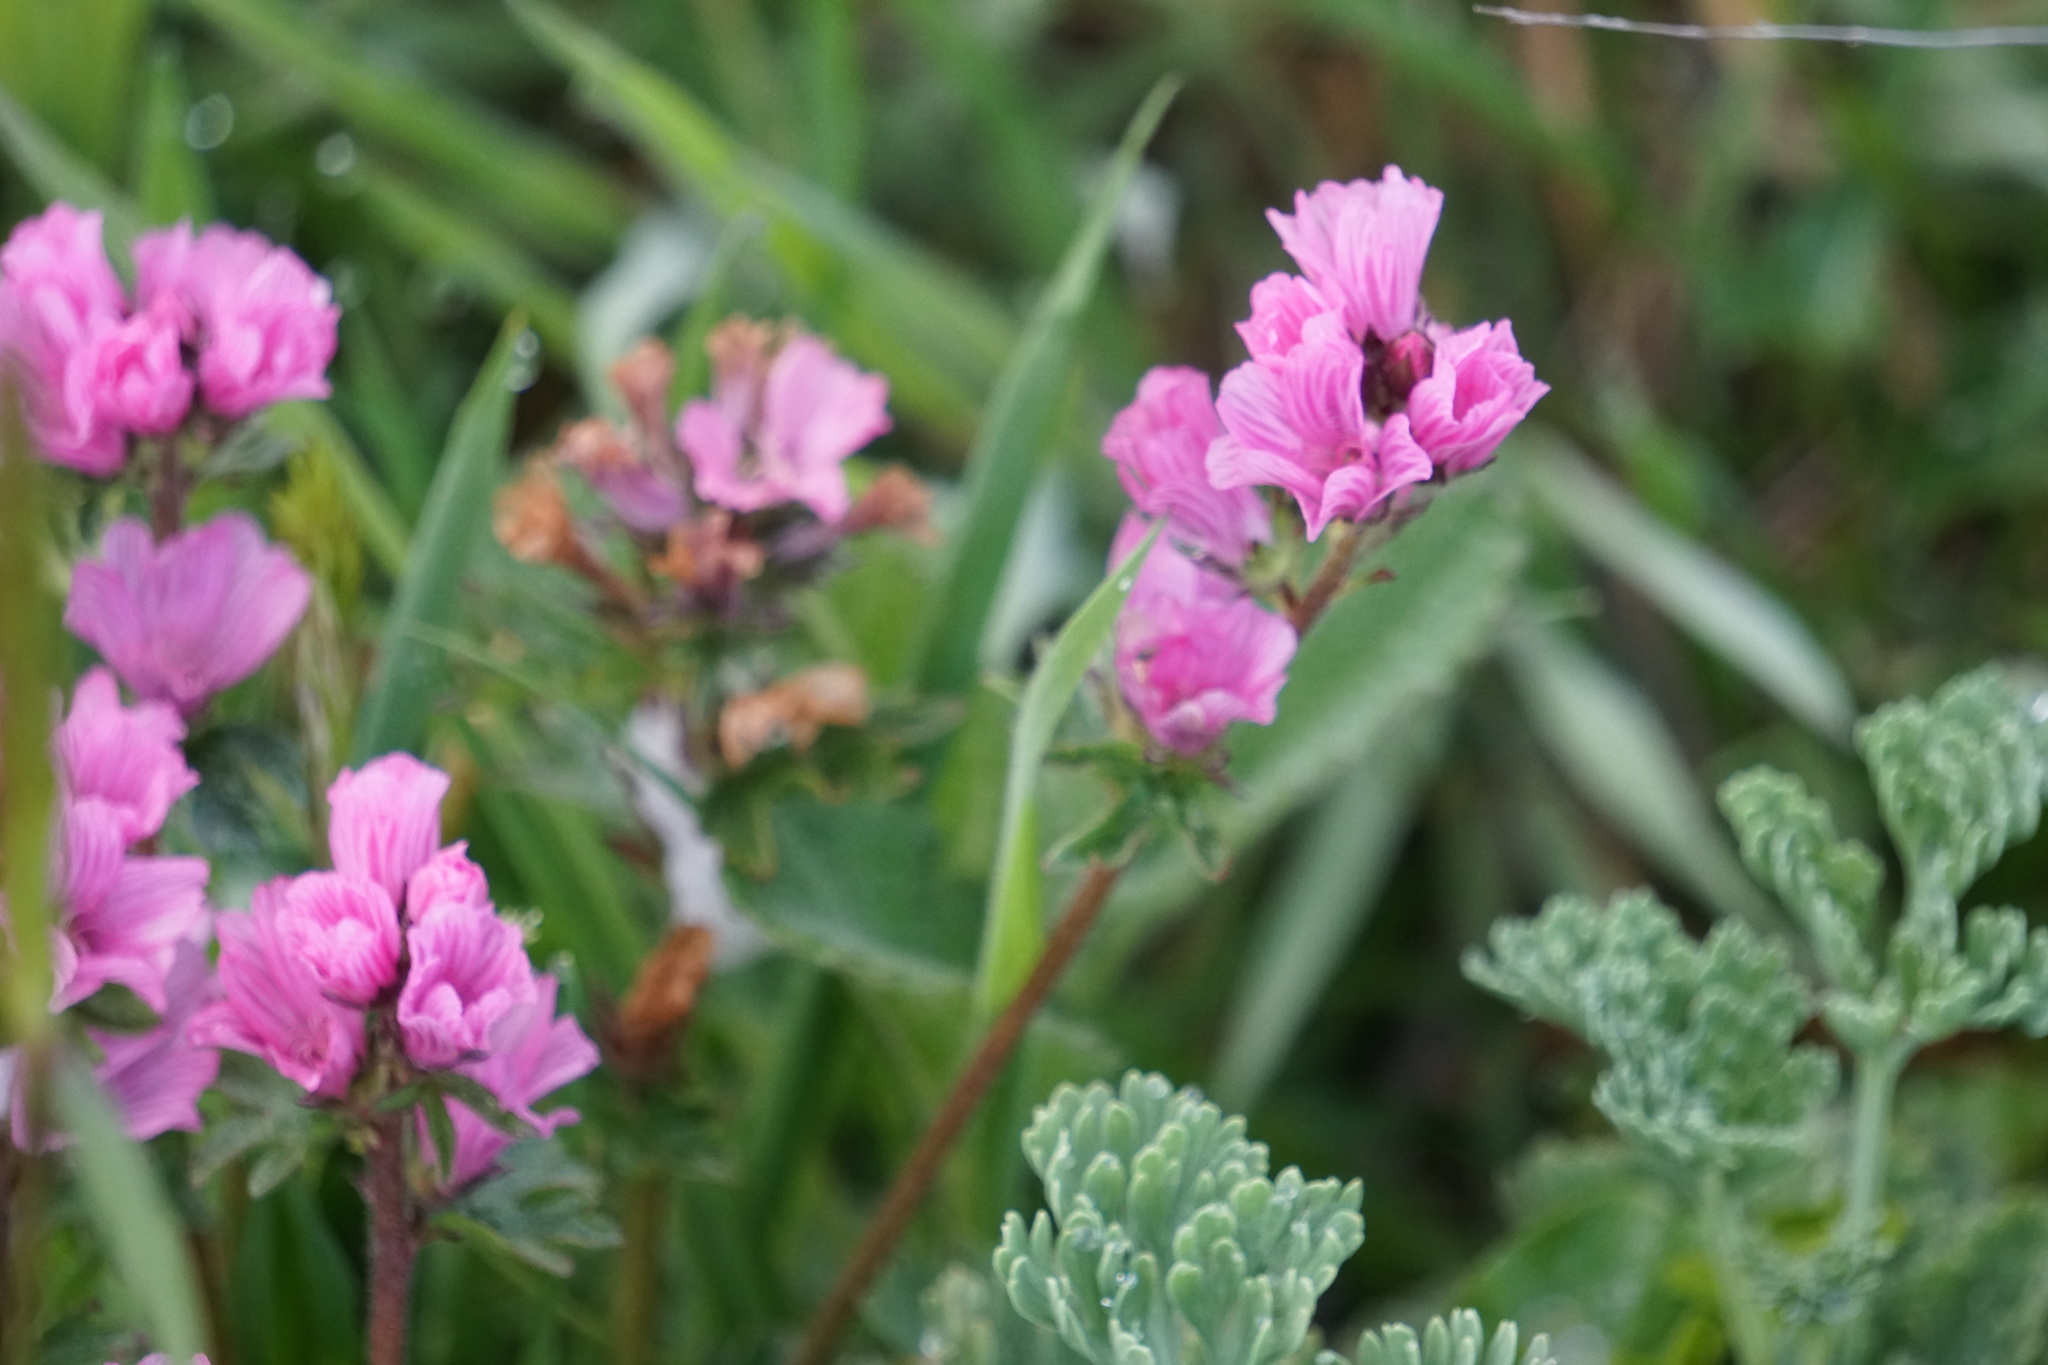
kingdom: Plantae
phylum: Tracheophyta
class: Magnoliopsida
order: Malvales
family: Malvaceae
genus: Sidalcea
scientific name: Sidalcea malviflora
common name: Greek mallow
